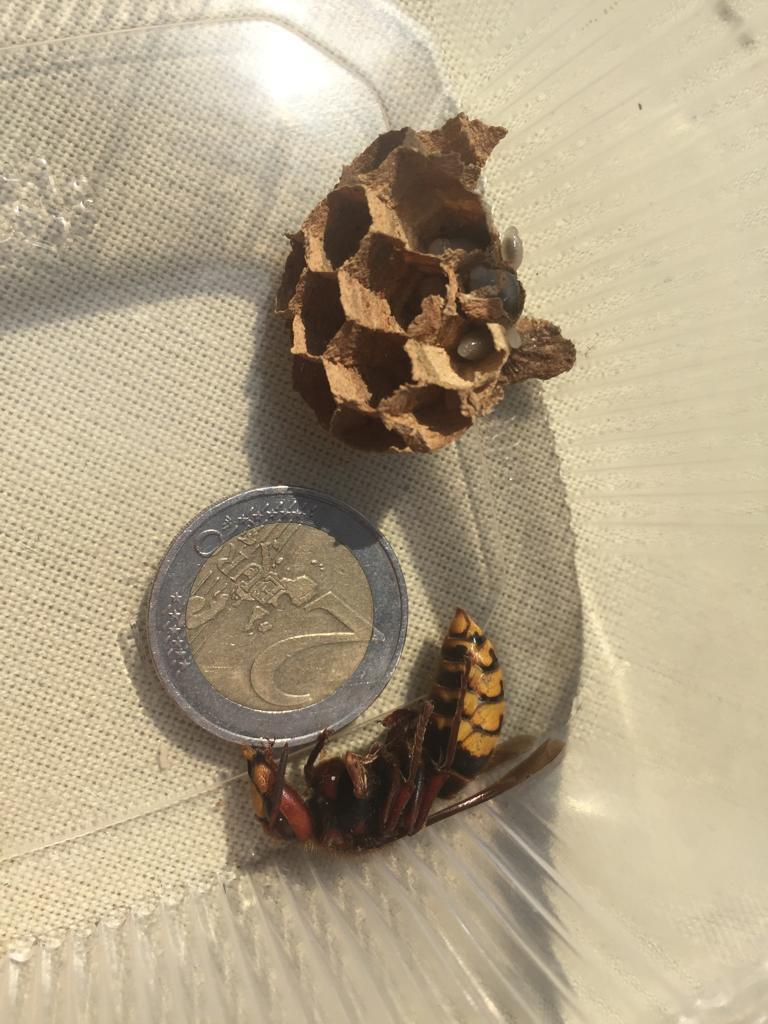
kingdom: Animalia
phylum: Arthropoda
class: Insecta
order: Hymenoptera
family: Vespidae
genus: Vespa
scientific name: Vespa crabro
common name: Hornet
